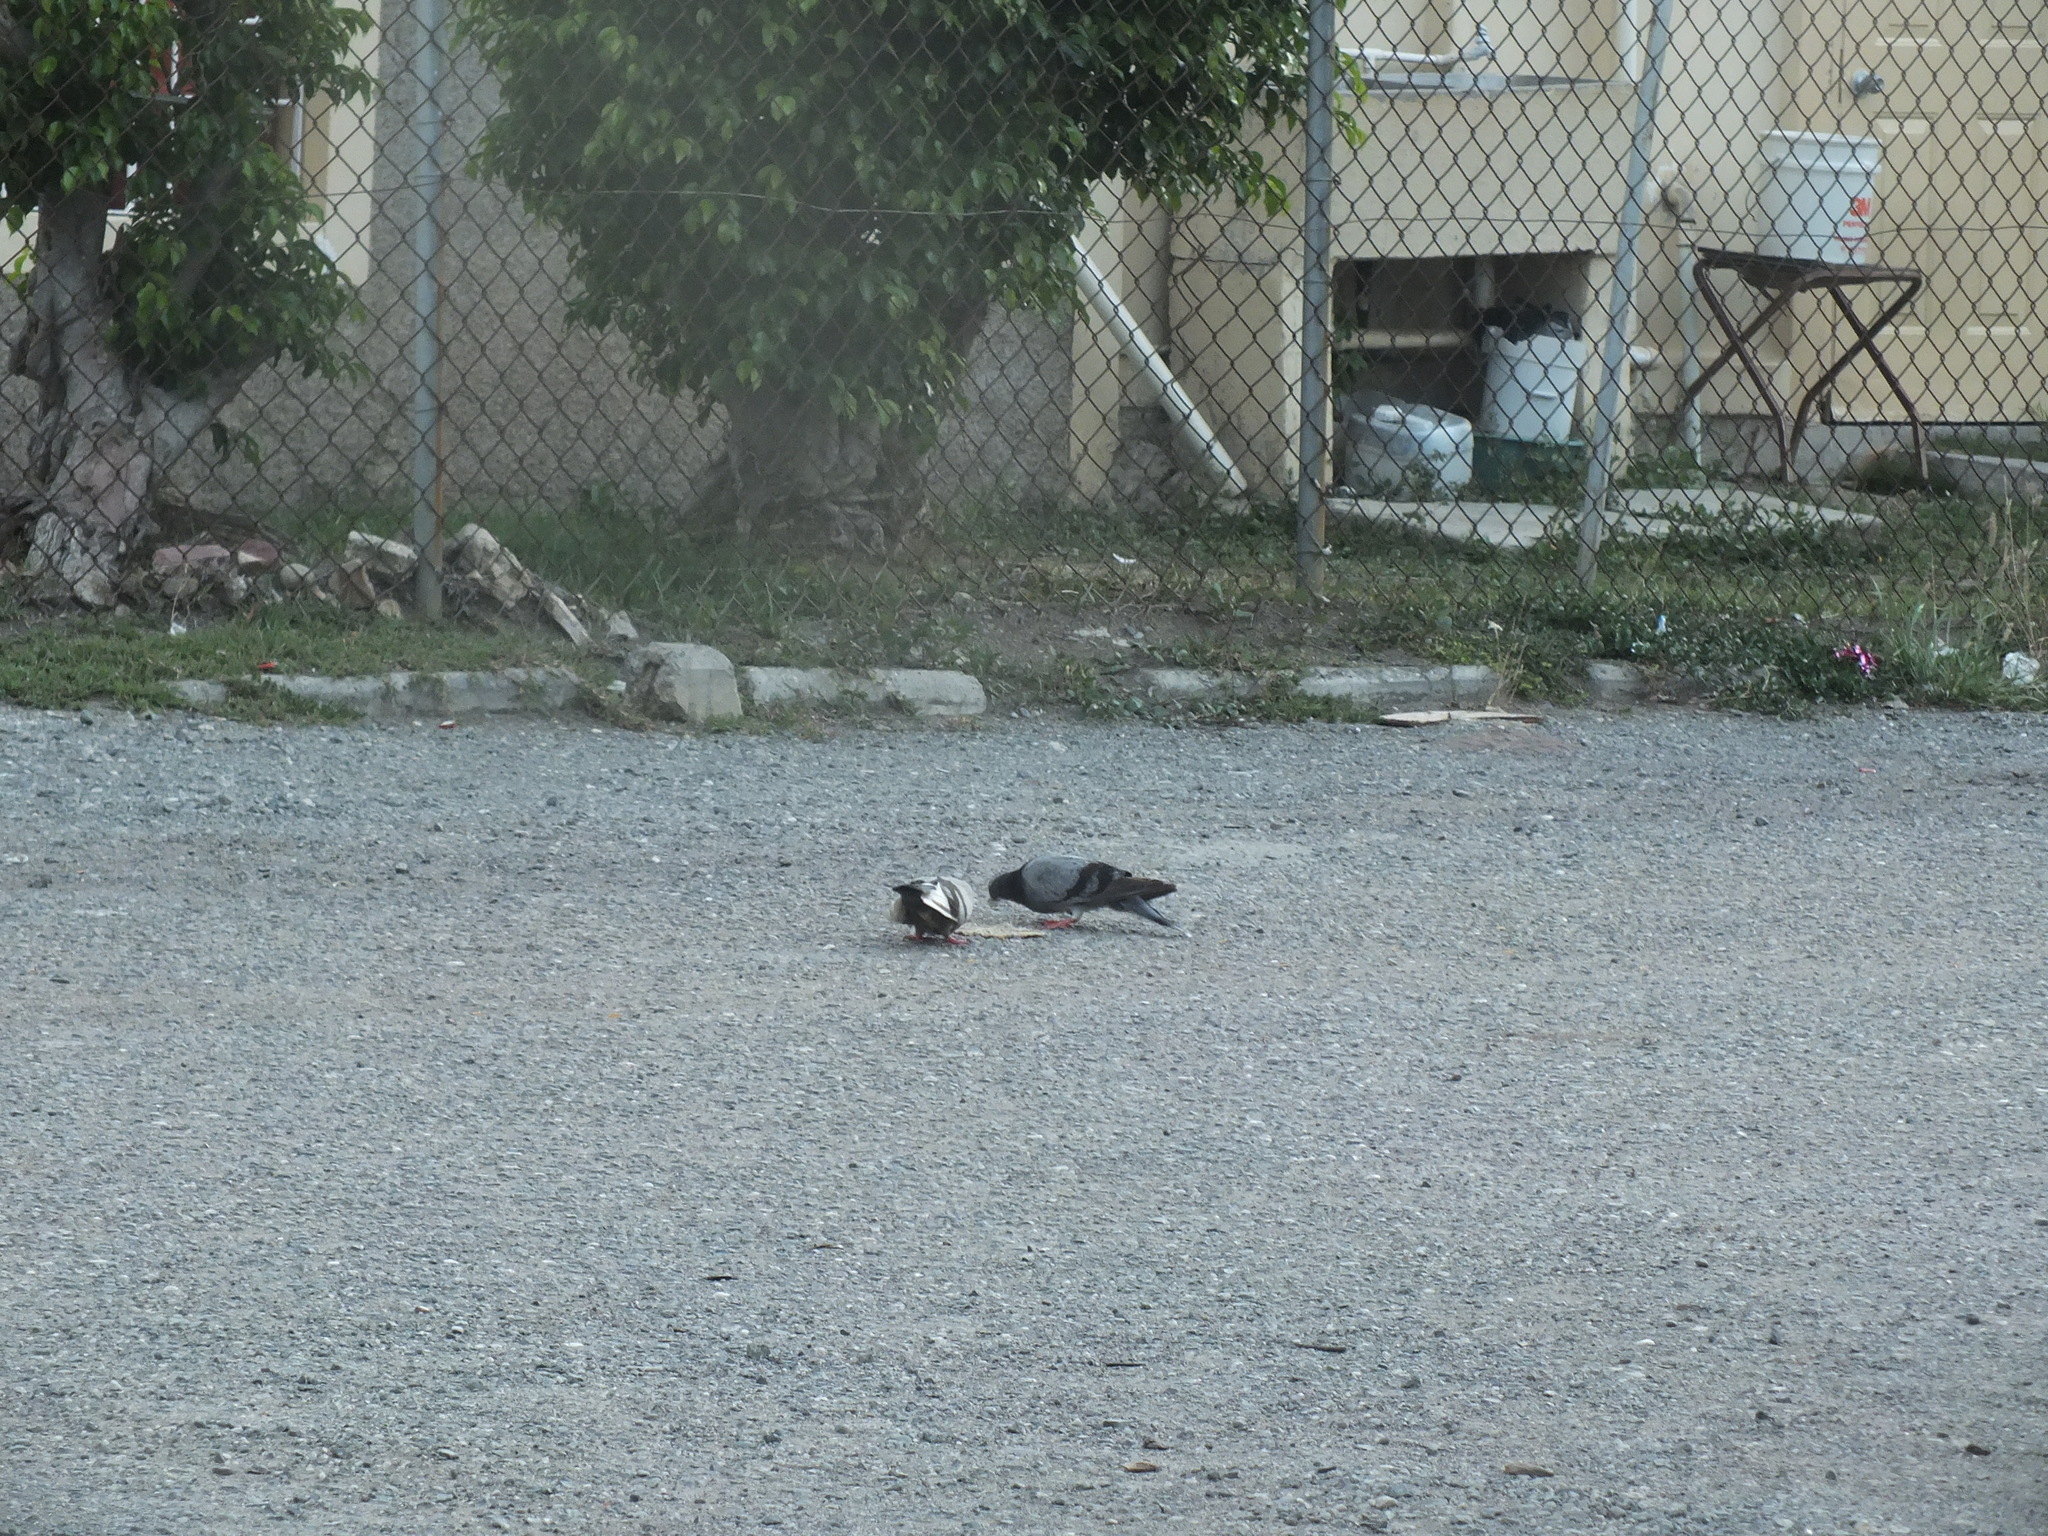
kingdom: Animalia
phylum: Chordata
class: Aves
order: Columbiformes
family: Columbidae
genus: Columba
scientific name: Columba livia
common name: Rock pigeon
